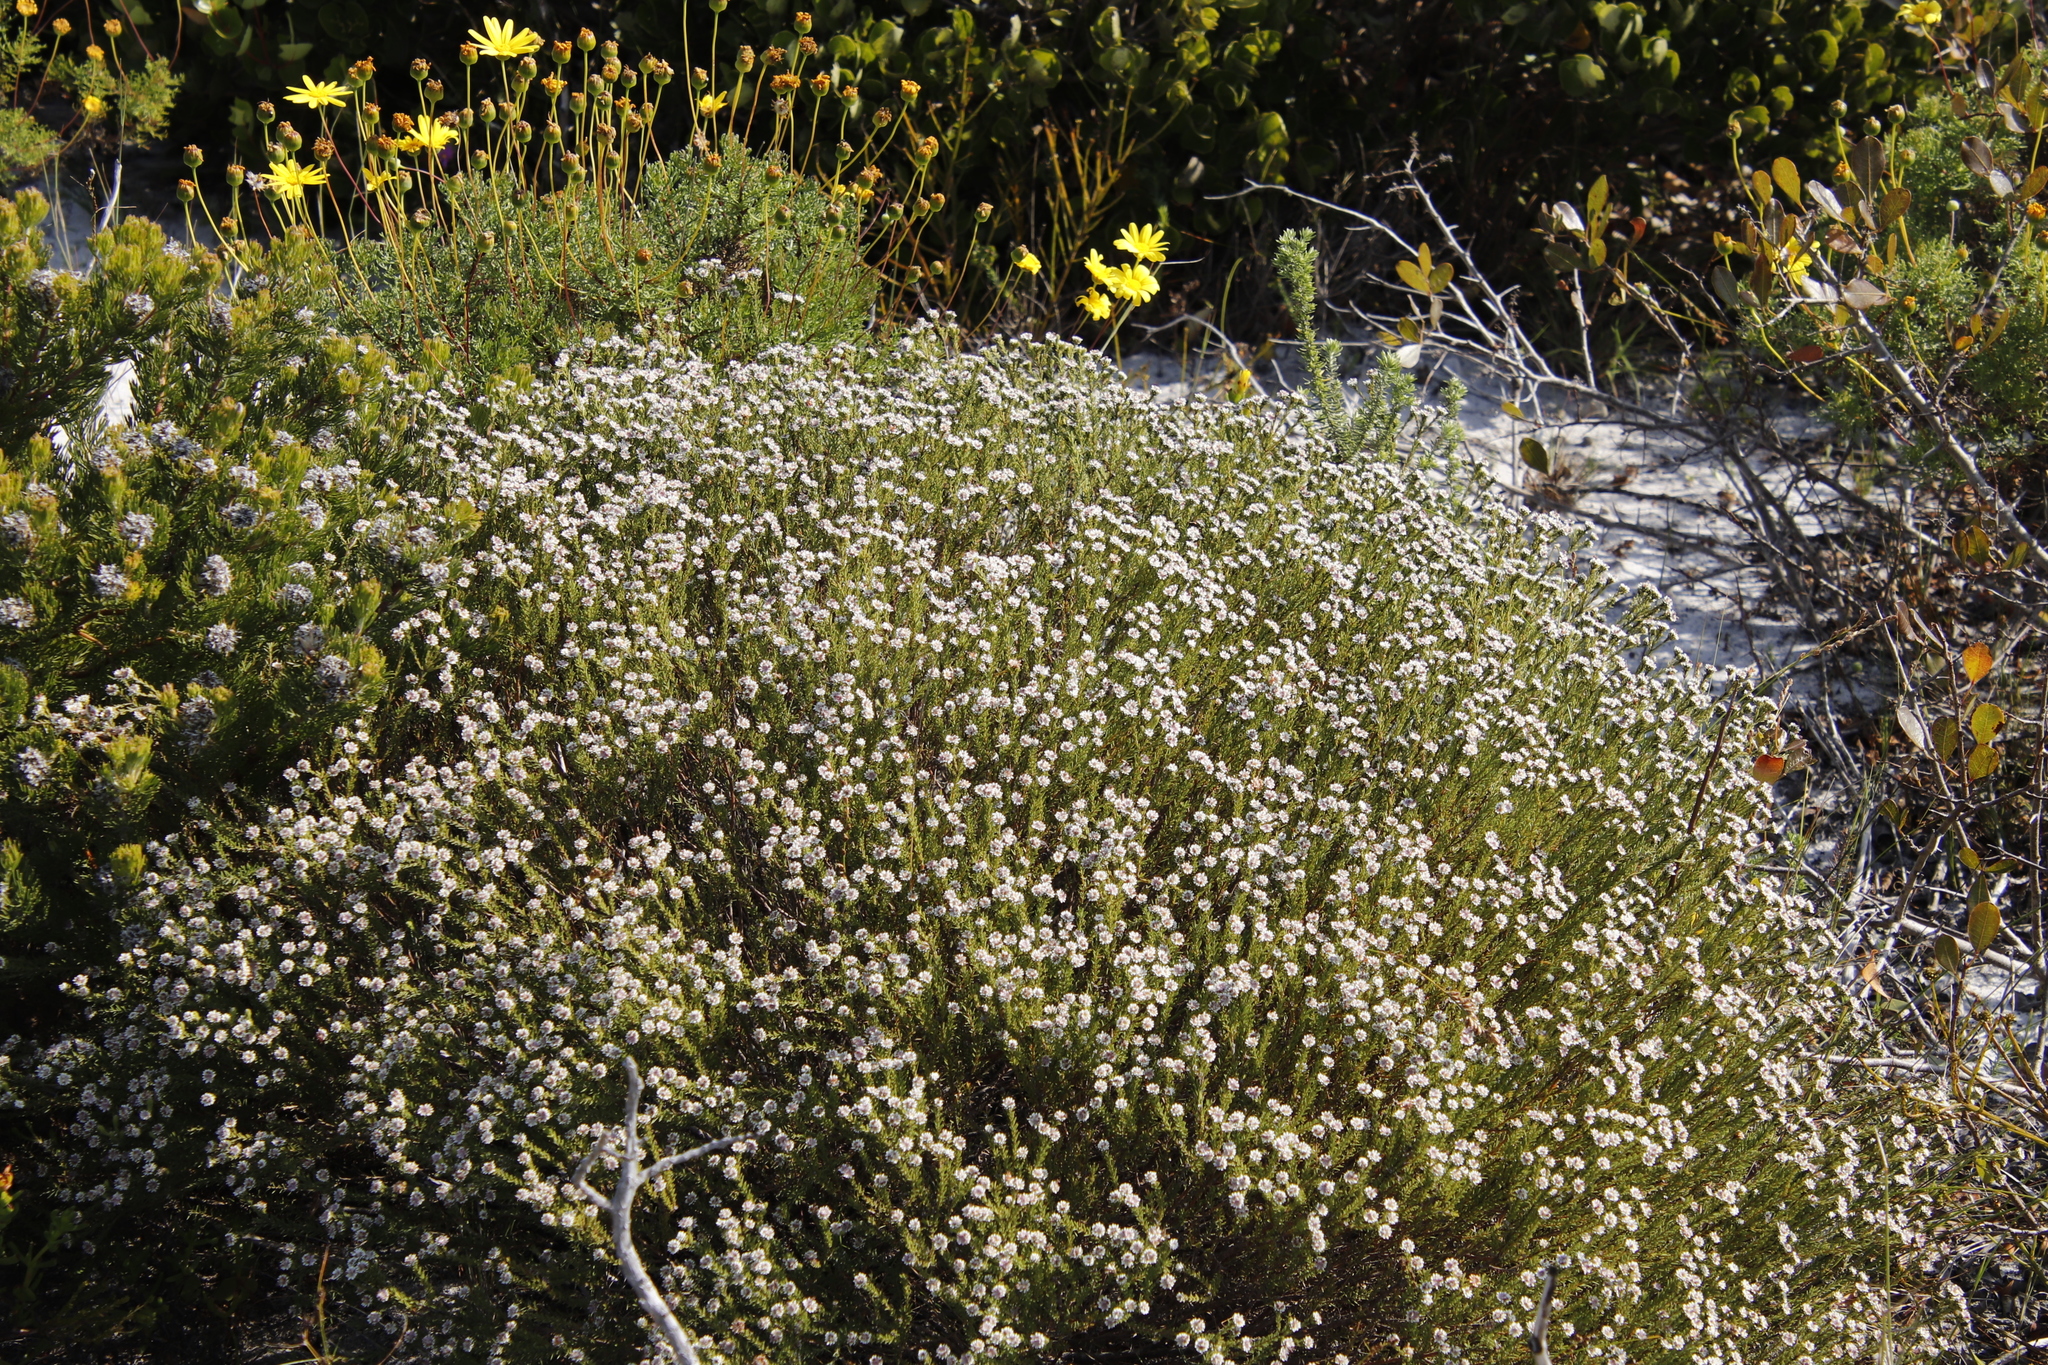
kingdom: Plantae
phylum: Tracheophyta
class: Magnoliopsida
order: Bruniales
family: Bruniaceae
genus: Staavia
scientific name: Staavia radiata
